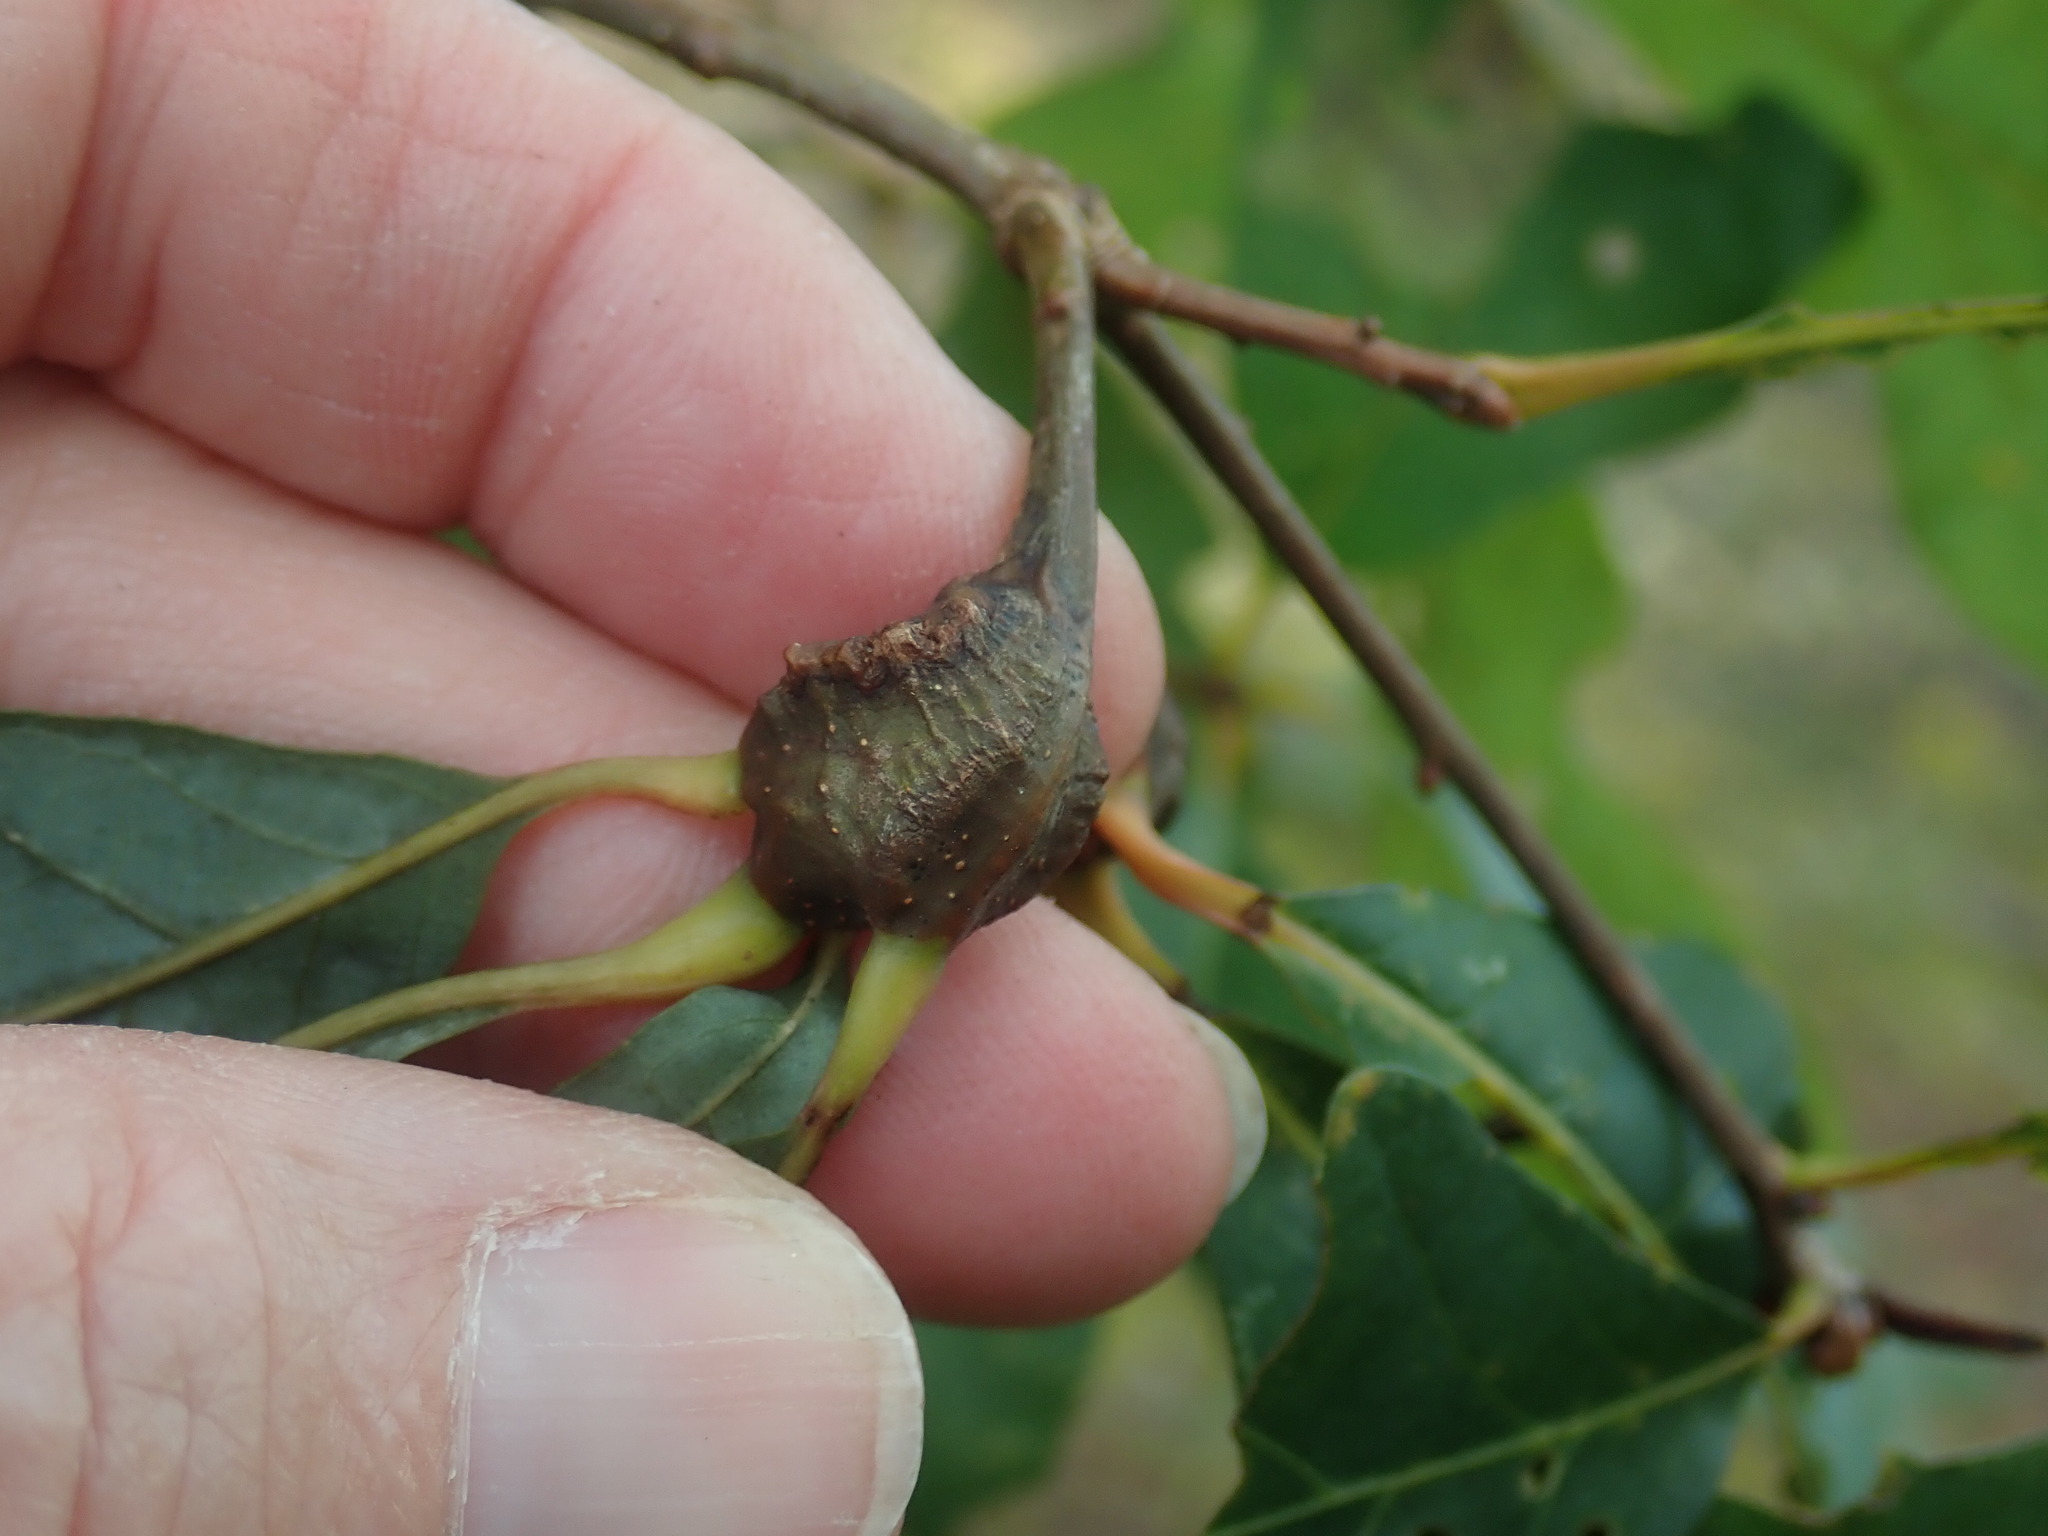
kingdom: Animalia
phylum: Arthropoda
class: Insecta
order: Hymenoptera
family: Cynipidae
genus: Callirhytis
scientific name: Callirhytis clavula
